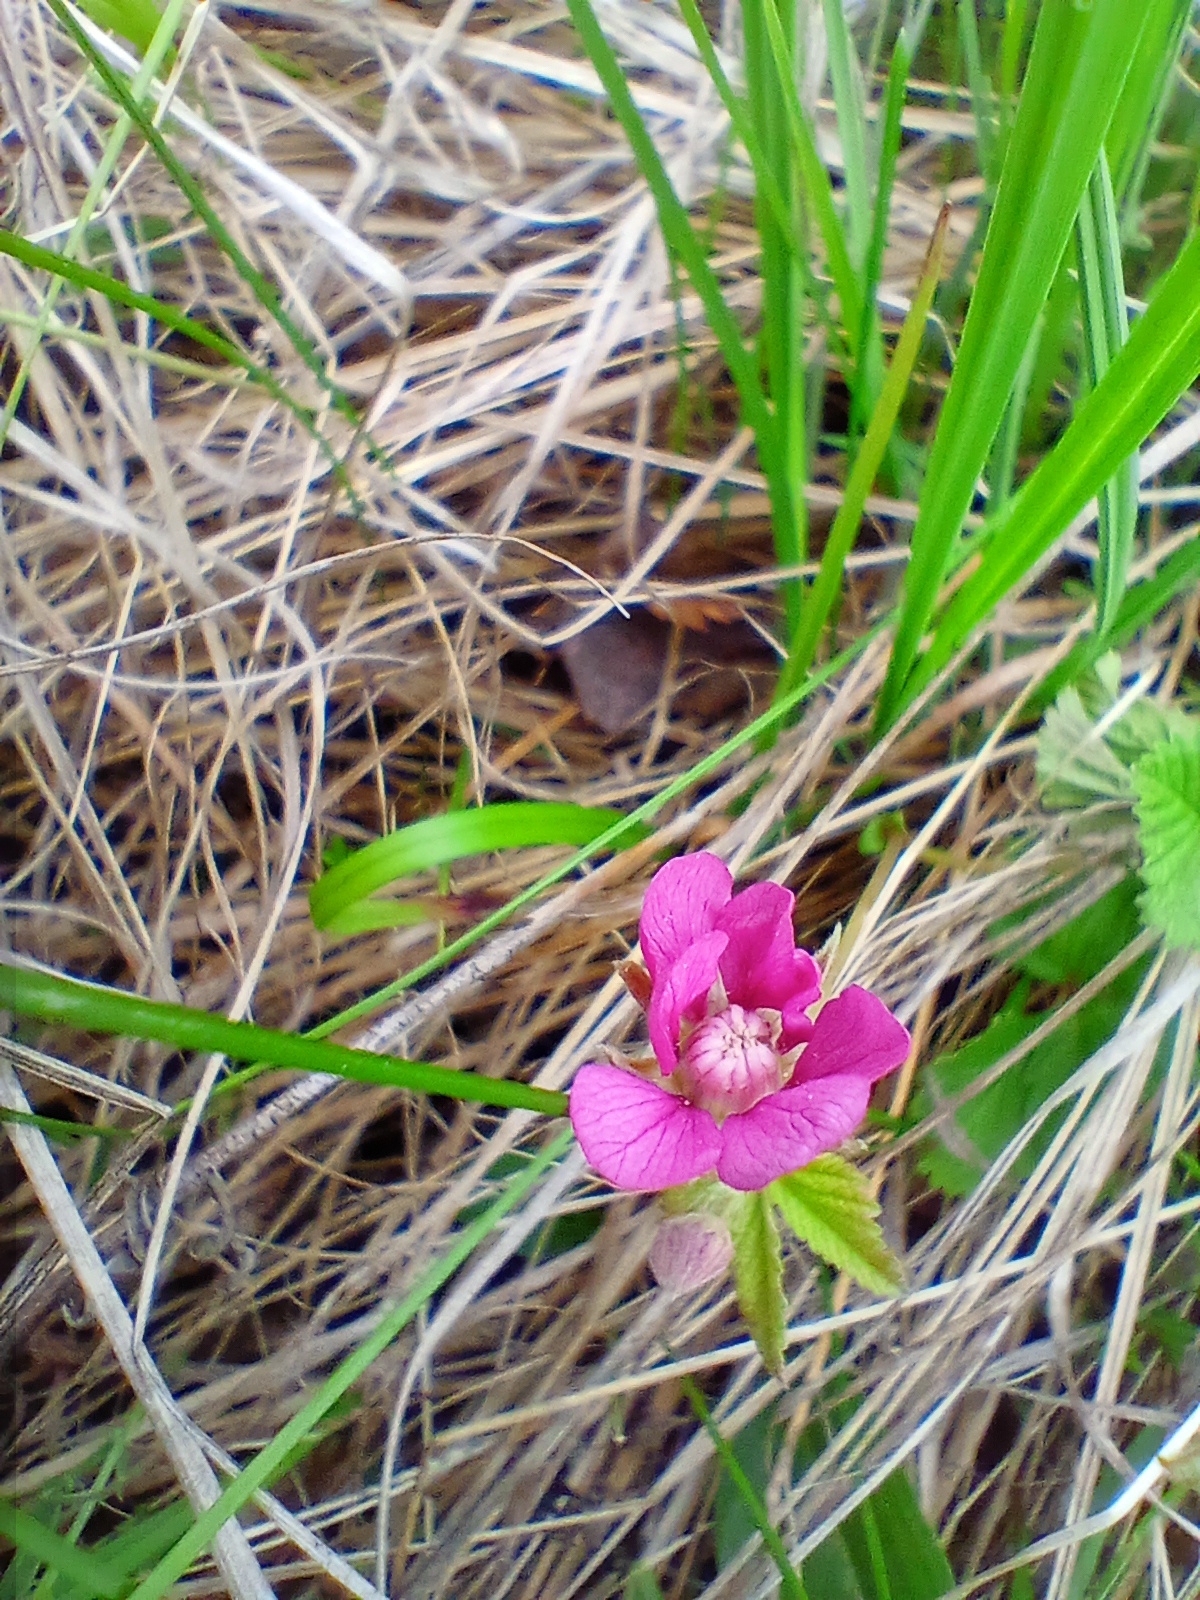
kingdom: Plantae
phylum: Tracheophyta
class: Magnoliopsida
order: Rosales
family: Rosaceae
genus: Rubus
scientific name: Rubus arcticus
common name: Arctic bramble
